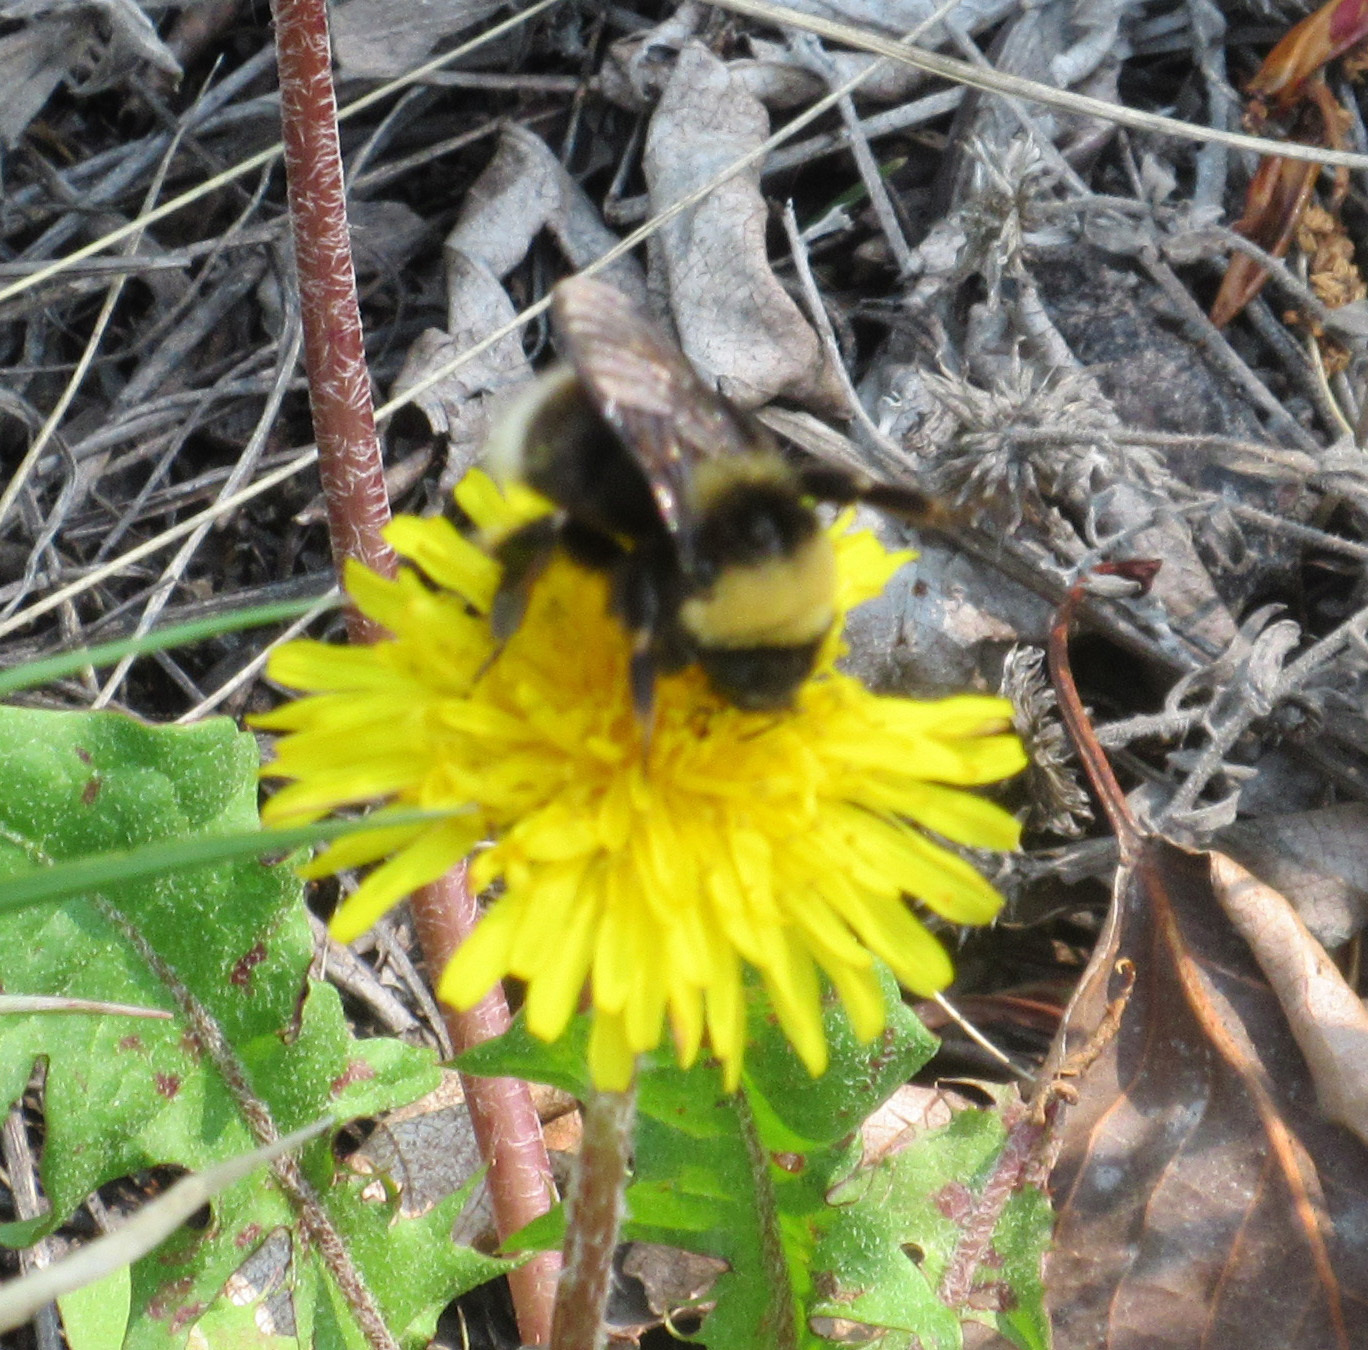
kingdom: Animalia
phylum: Arthropoda
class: Insecta
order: Hymenoptera
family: Apidae
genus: Bombus
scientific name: Bombus occidentalis
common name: Western bumble bee
